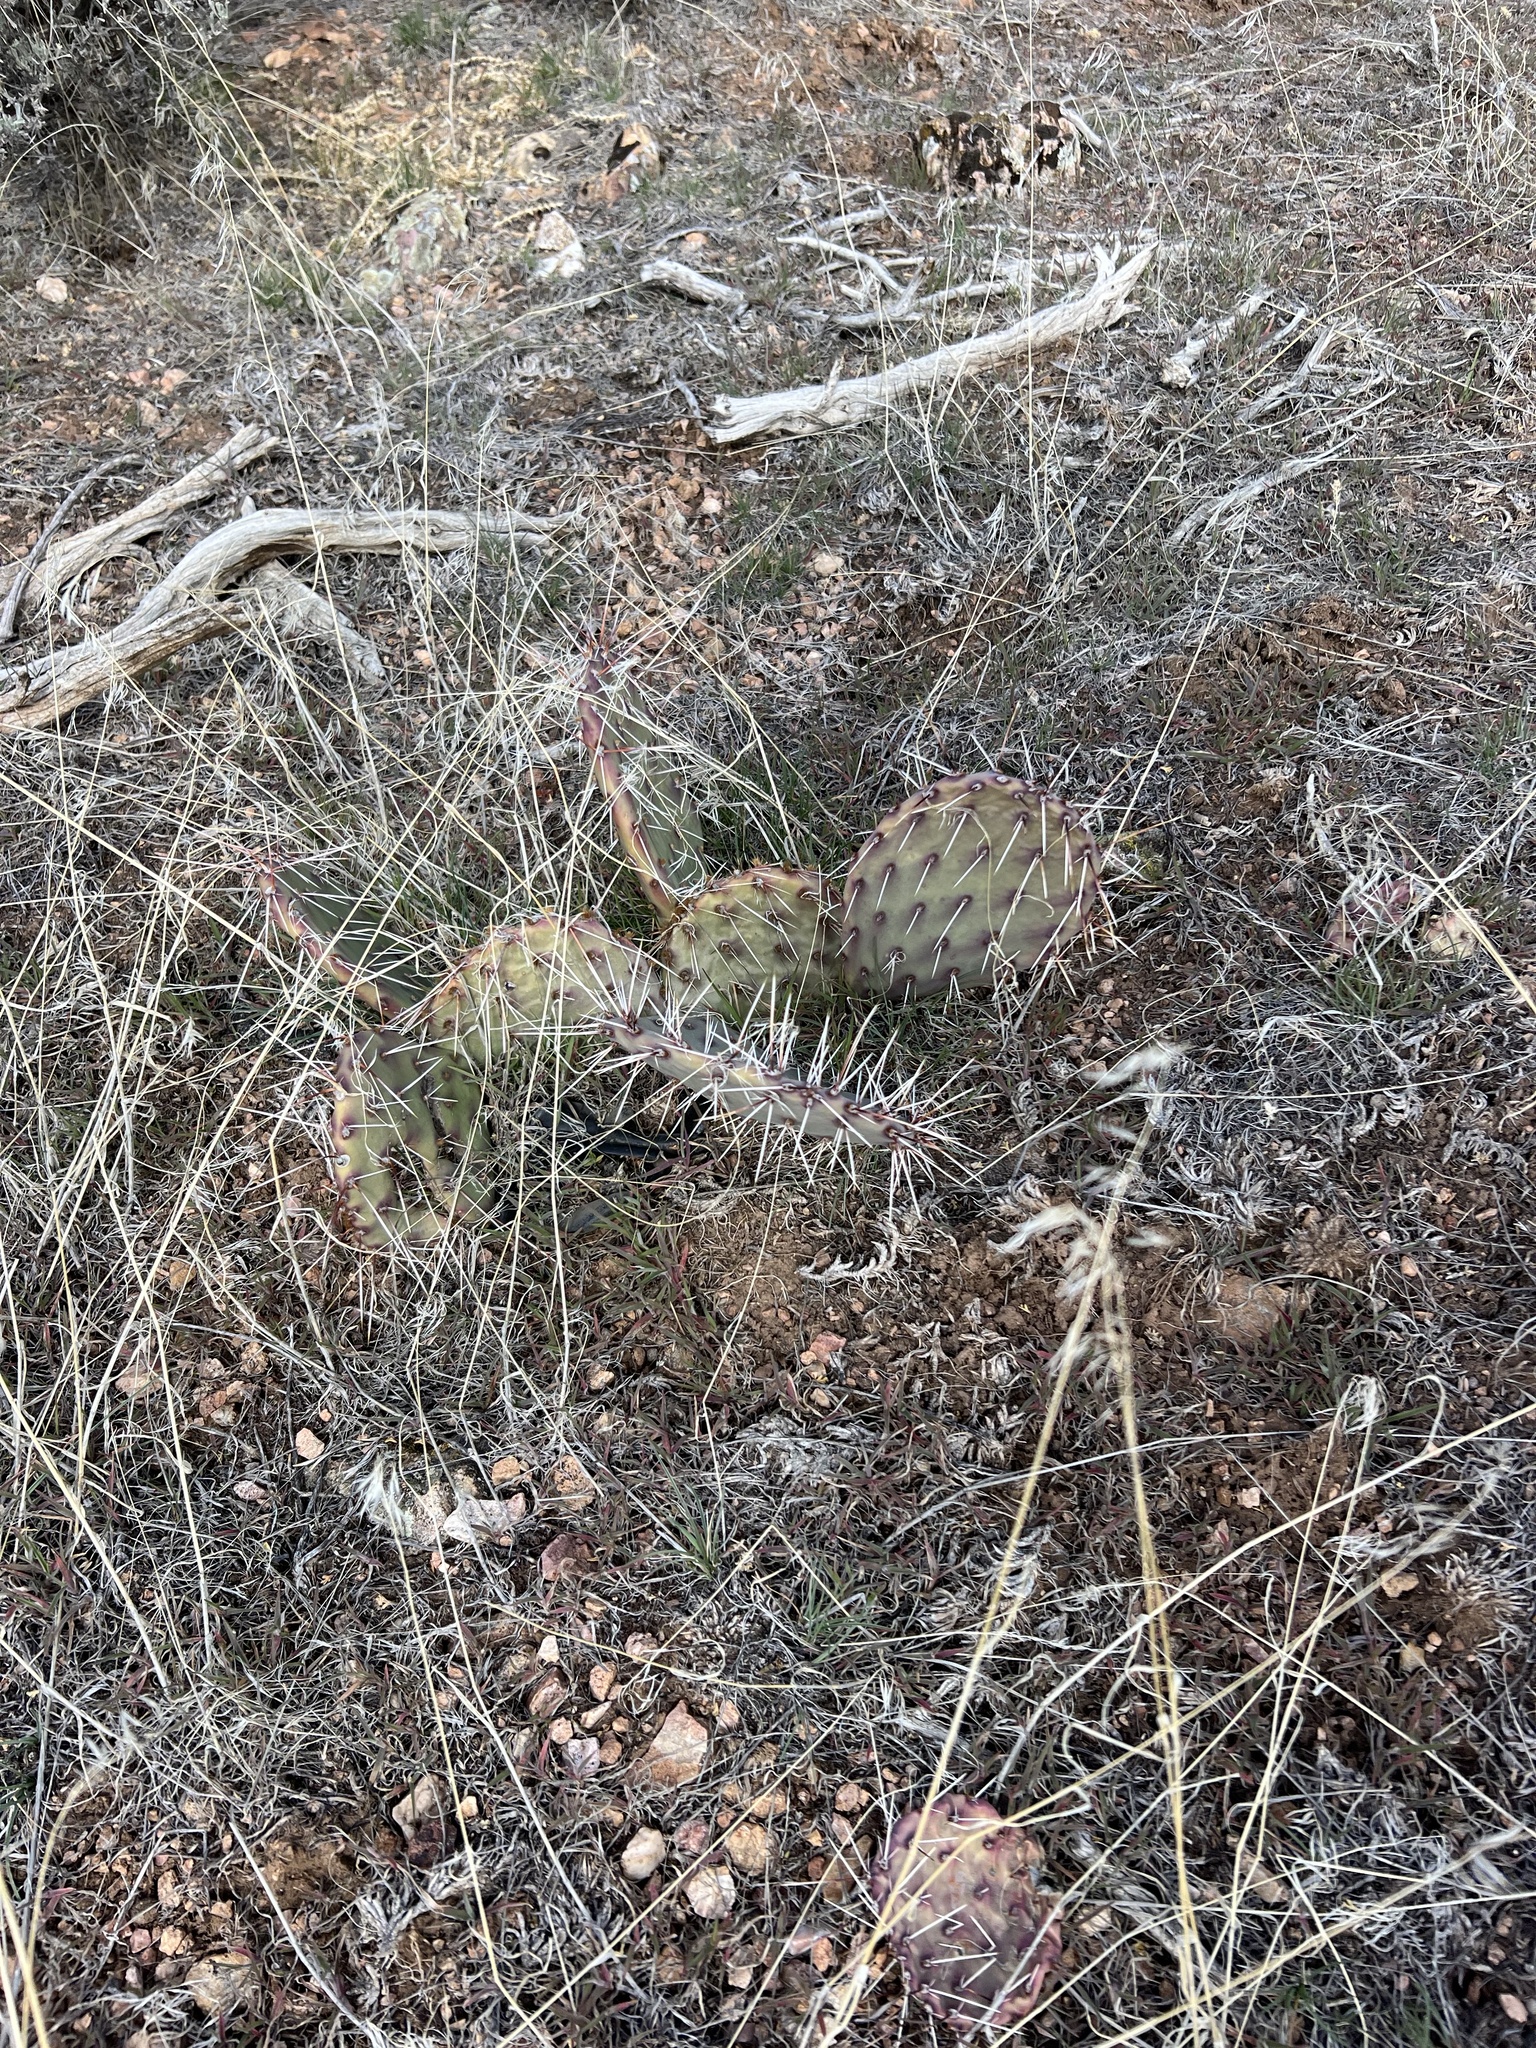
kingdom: Plantae
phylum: Tracheophyta
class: Magnoliopsida
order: Caryophyllales
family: Cactaceae
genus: Opuntia
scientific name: Opuntia phaeacantha
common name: New mexico prickly-pear
